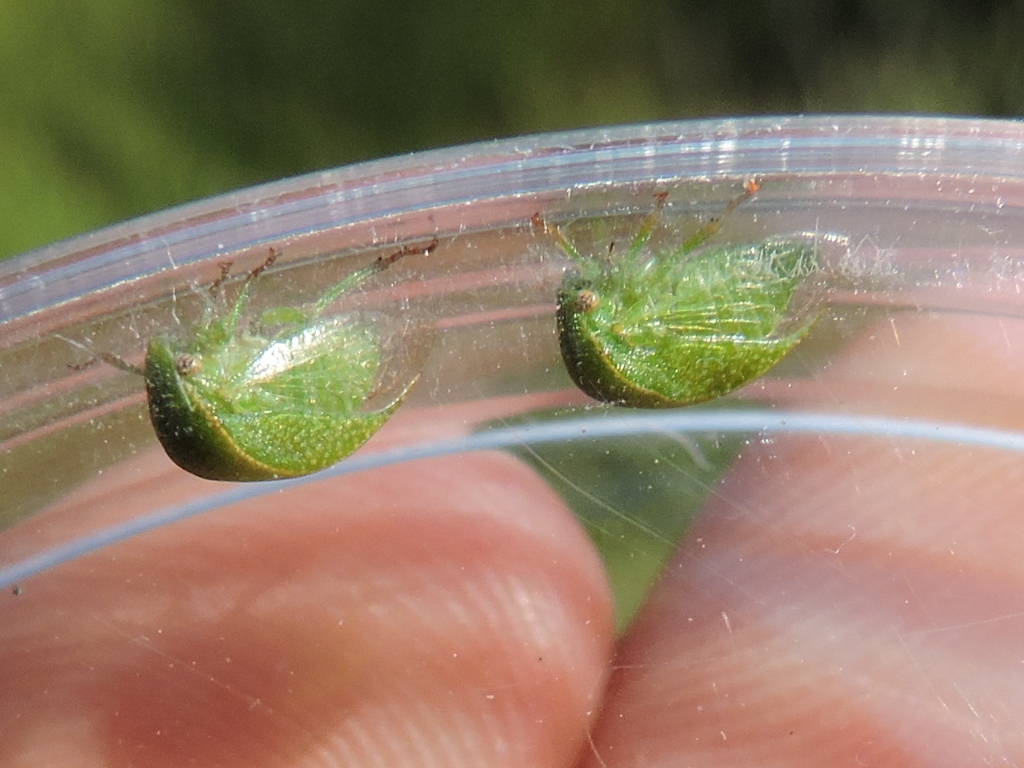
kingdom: Animalia
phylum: Arthropoda
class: Insecta
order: Hemiptera
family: Membracidae
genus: Spissistilus
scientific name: Spissistilus festina
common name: Membracid bug
